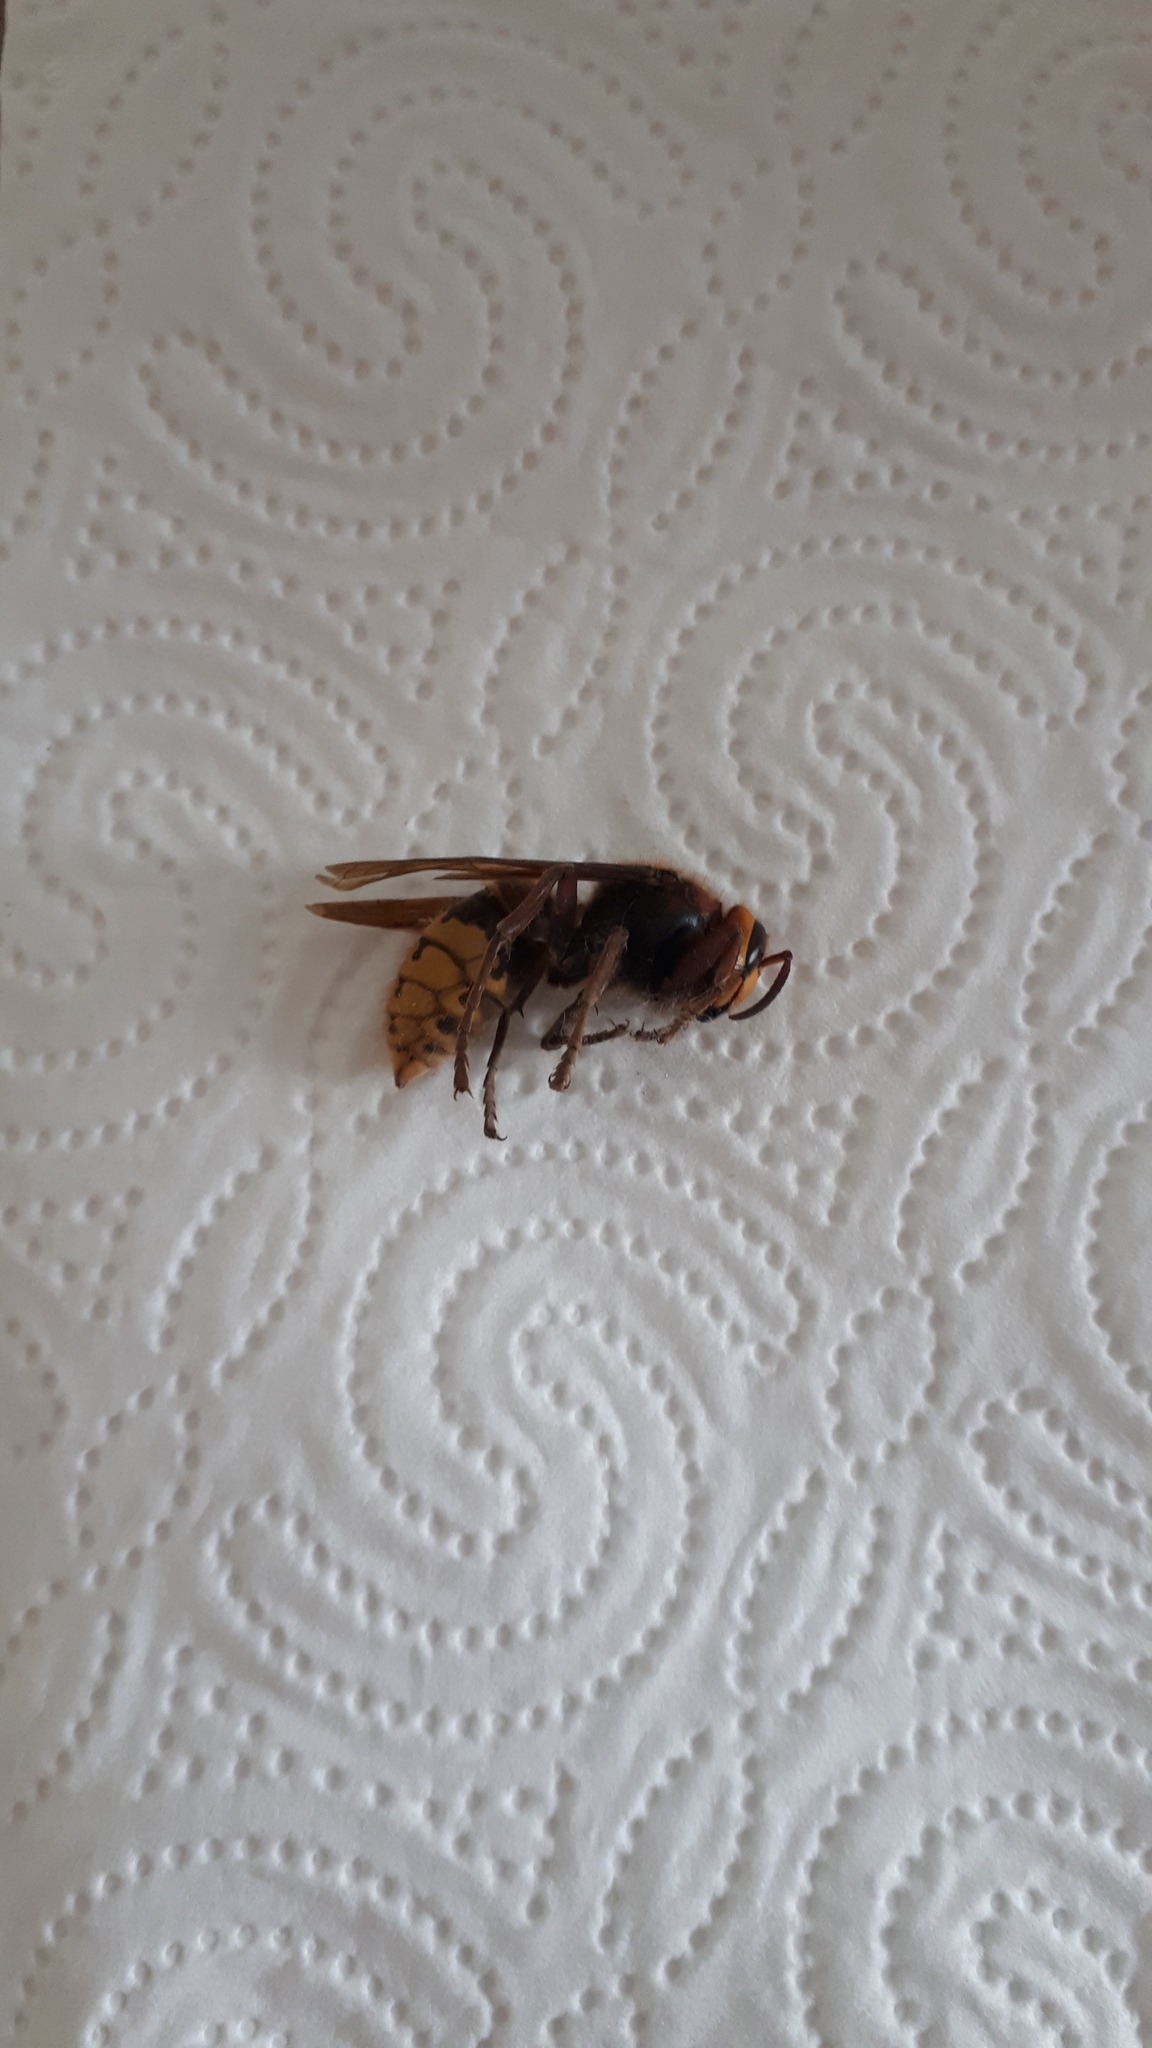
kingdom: Animalia
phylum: Arthropoda
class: Insecta
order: Hymenoptera
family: Vespidae
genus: Vespa
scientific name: Vespa crabro
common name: Hornet
